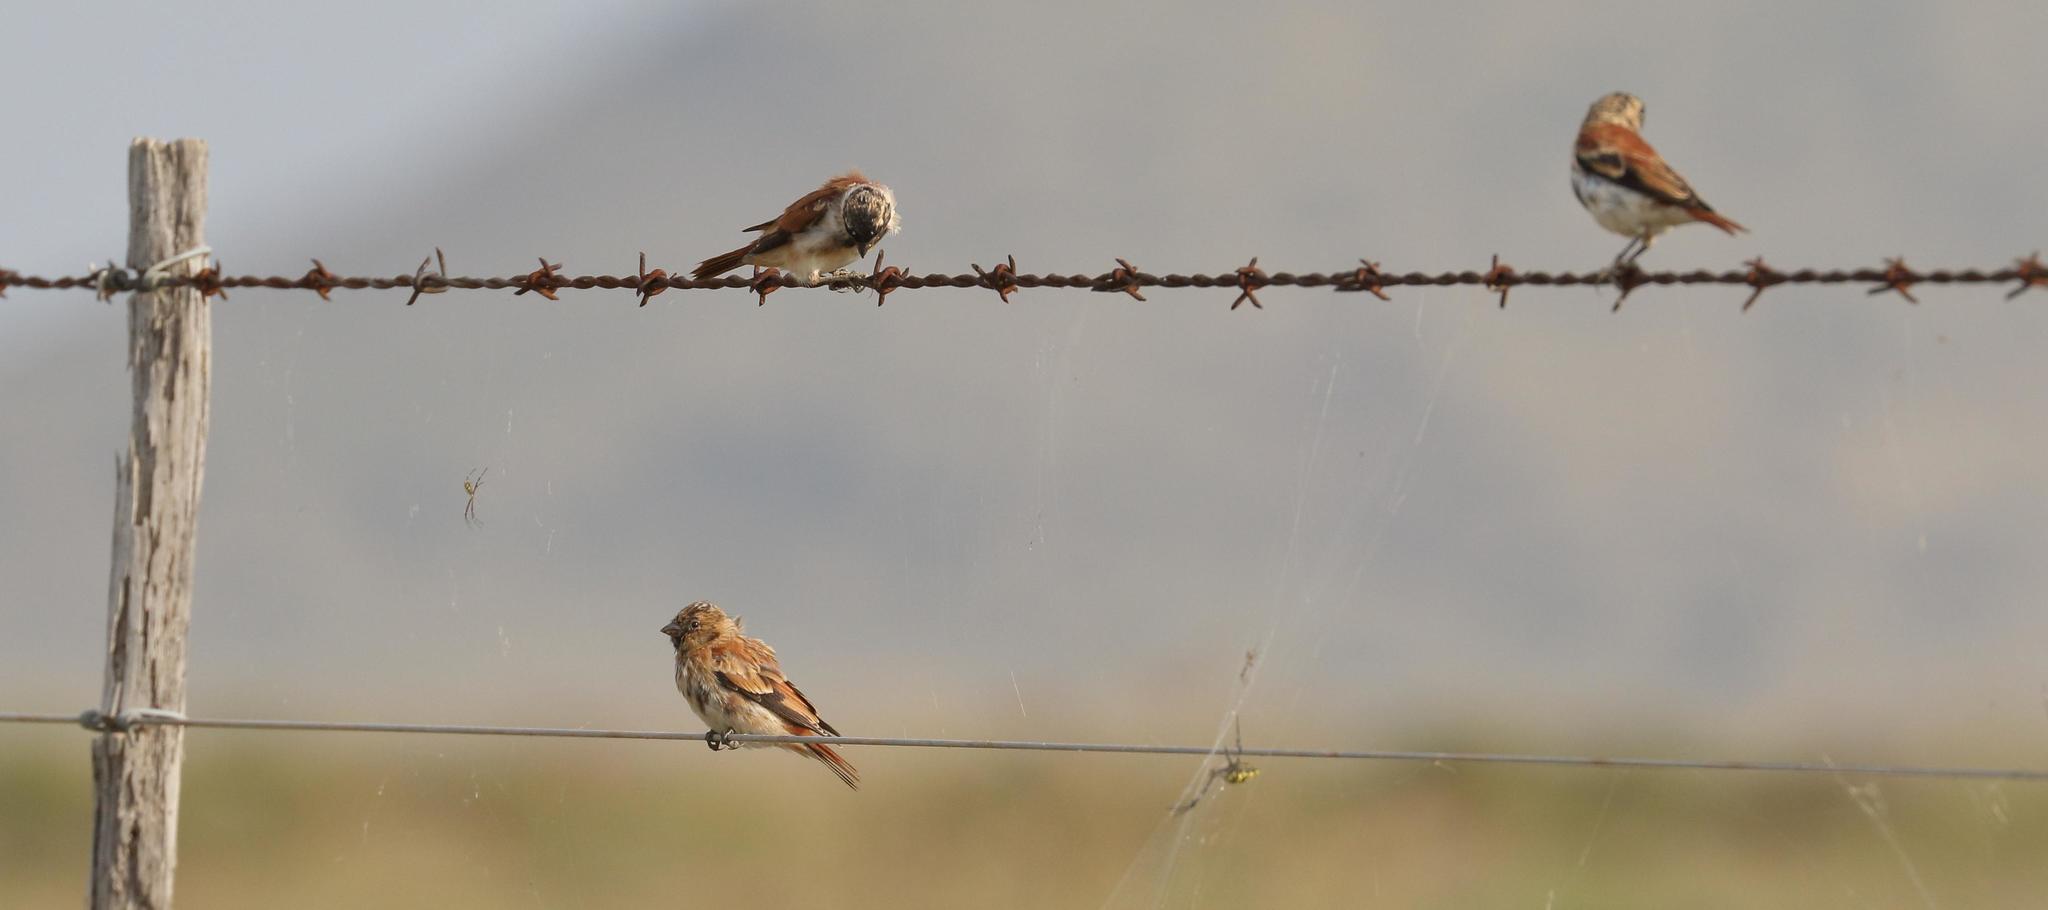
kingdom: Animalia
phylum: Chordata
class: Aves
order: Passeriformes
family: Fringillidae
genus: Serinus
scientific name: Serinus alario
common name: Black-headed canary
